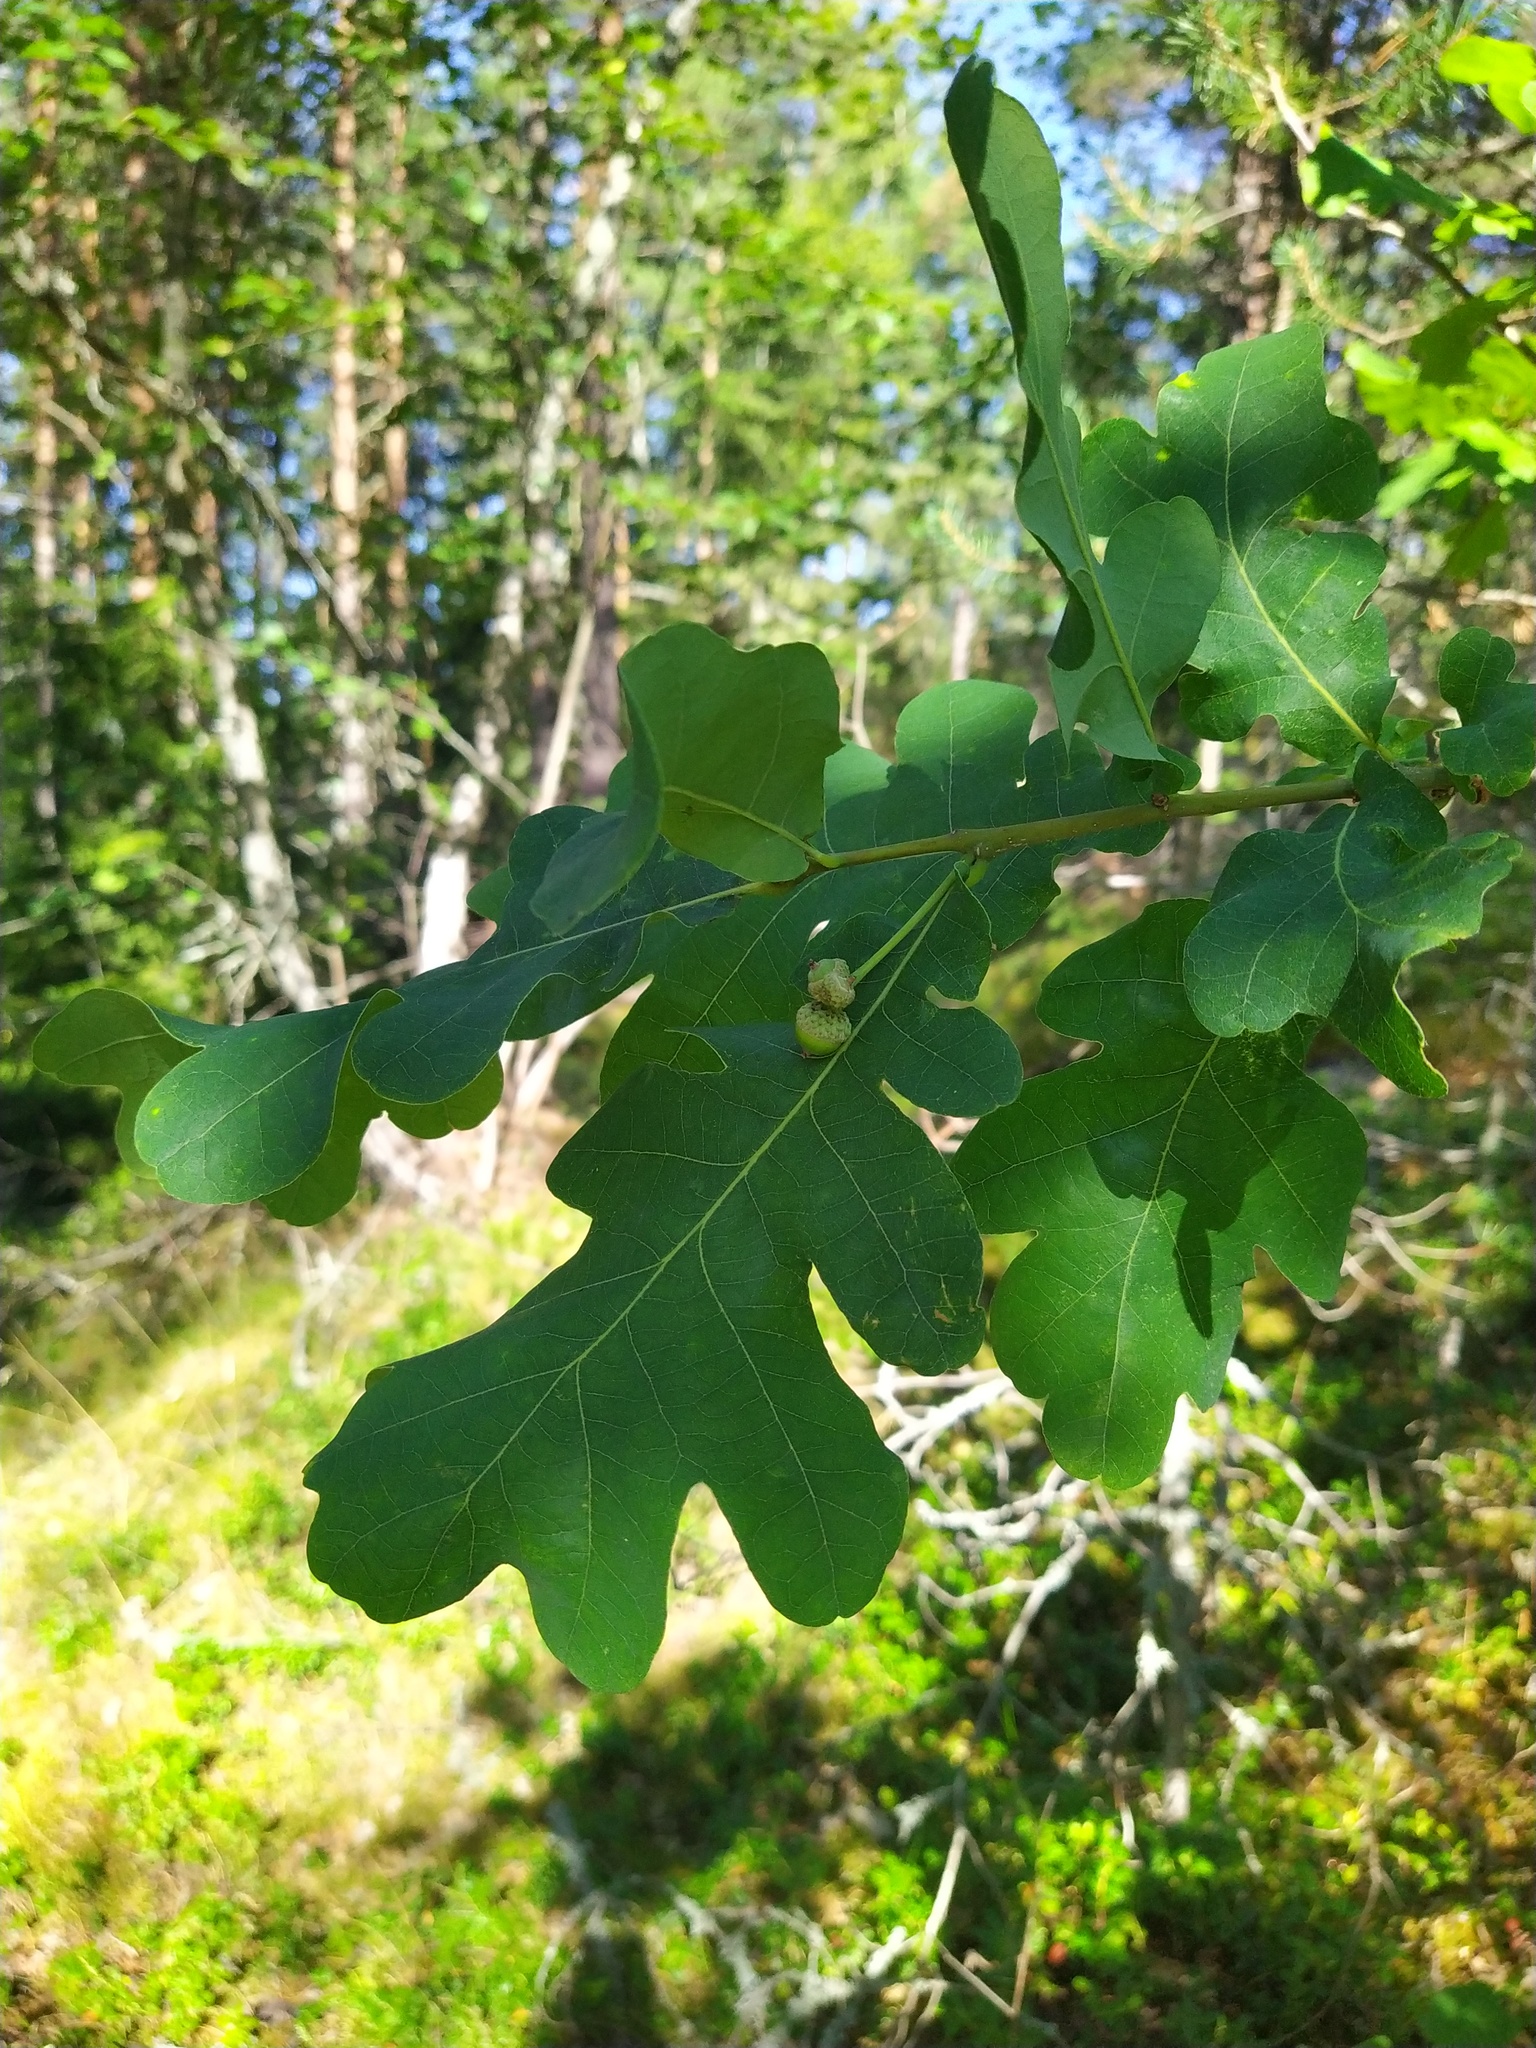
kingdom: Plantae
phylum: Tracheophyta
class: Magnoliopsida
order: Fagales
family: Fagaceae
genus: Quercus
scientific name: Quercus robur
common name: Pedunculate oak
